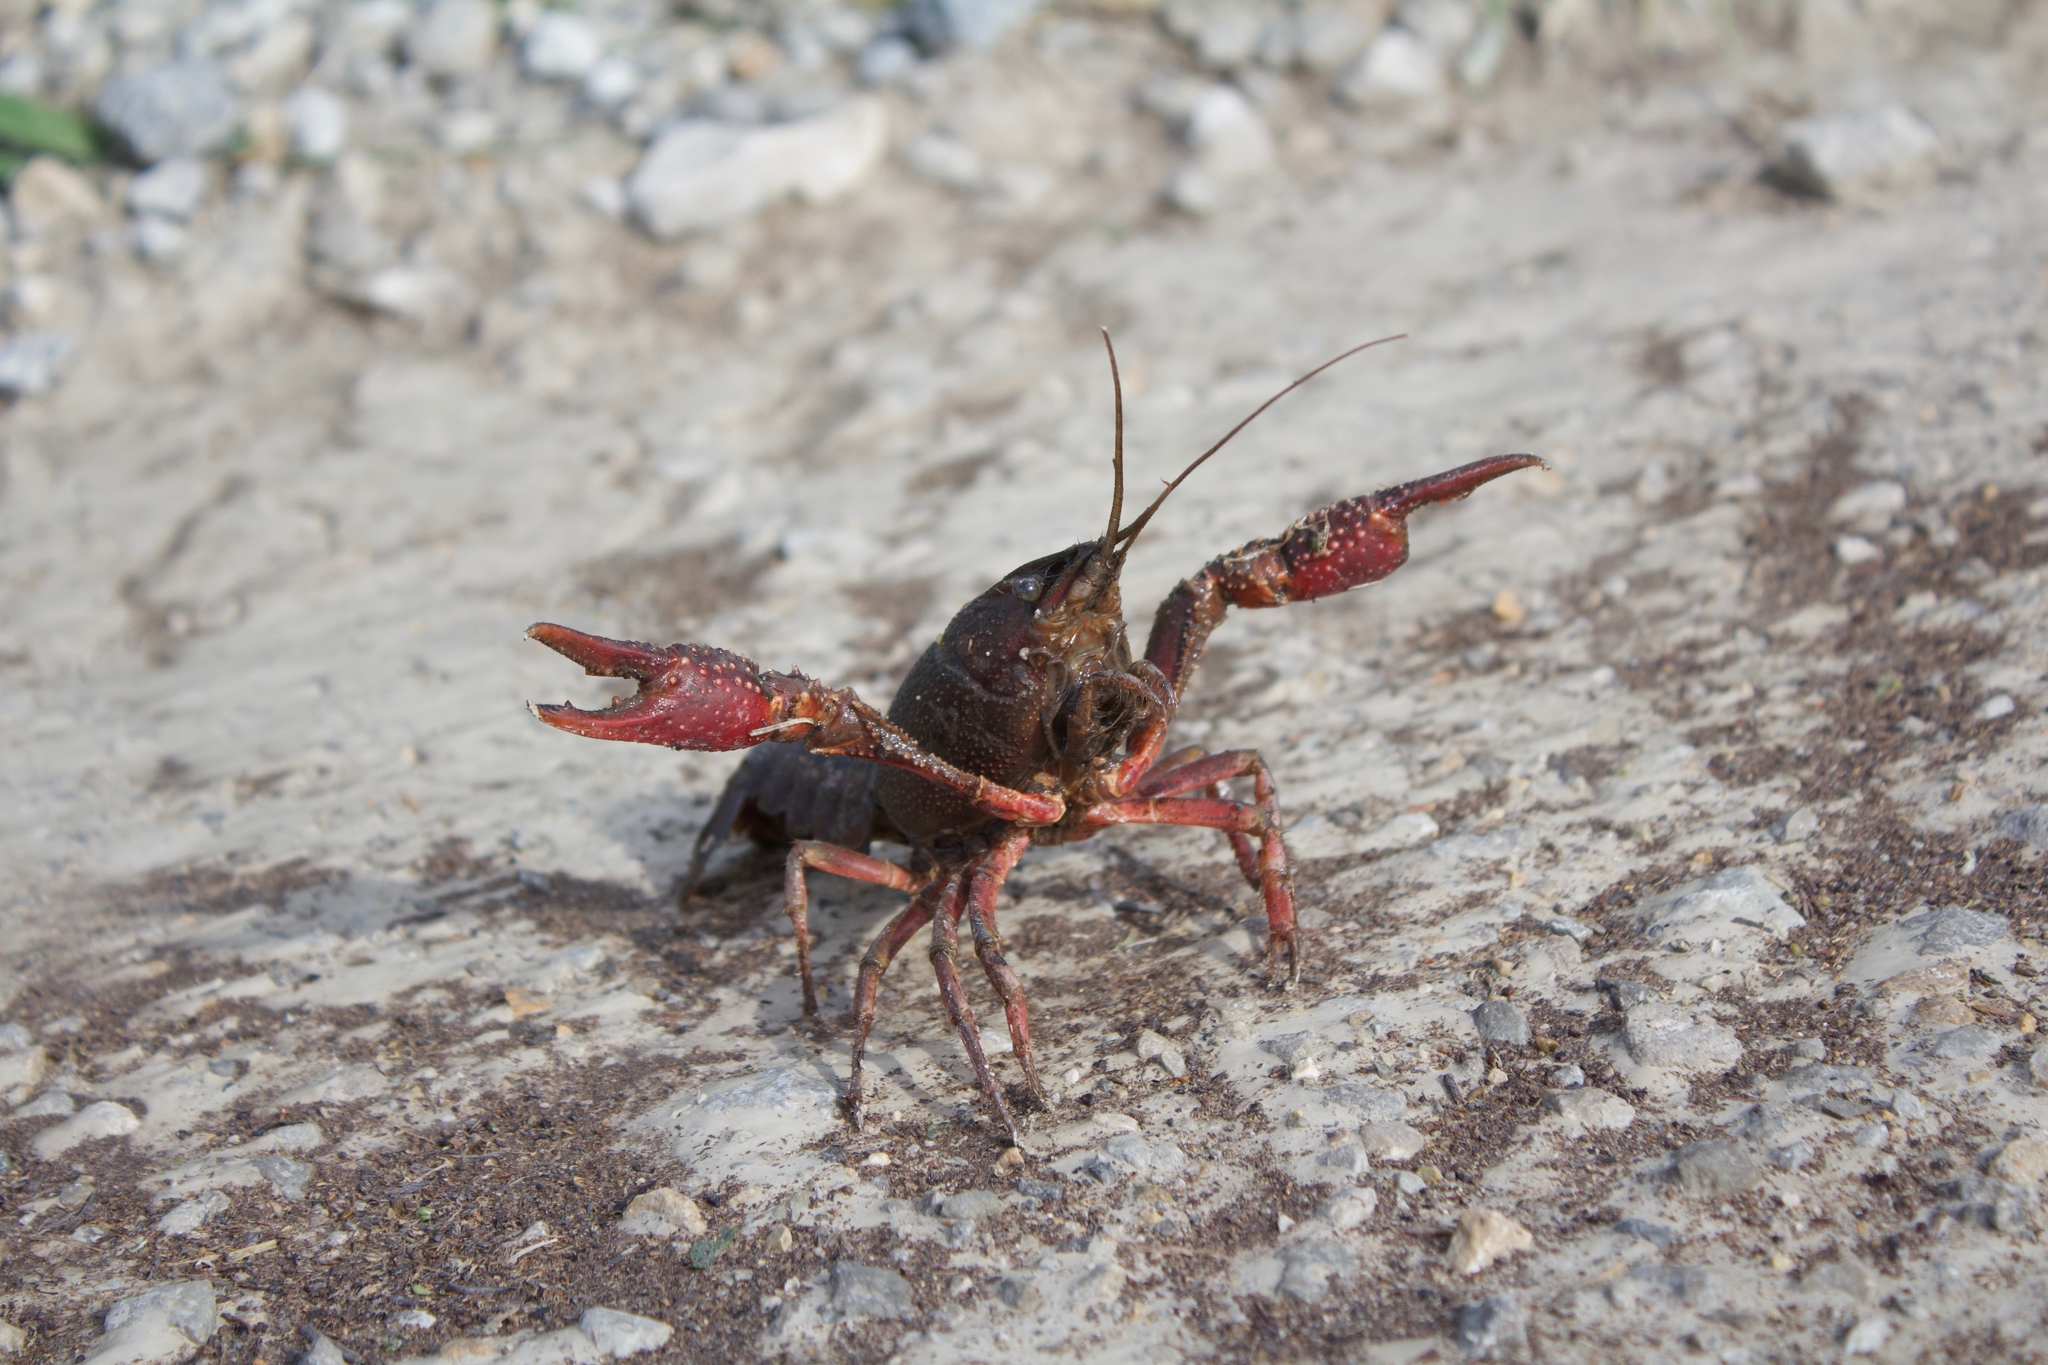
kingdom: Animalia
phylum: Arthropoda
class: Malacostraca
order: Decapoda
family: Cambaridae
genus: Procambarus
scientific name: Procambarus acutus
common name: White river crayfish
